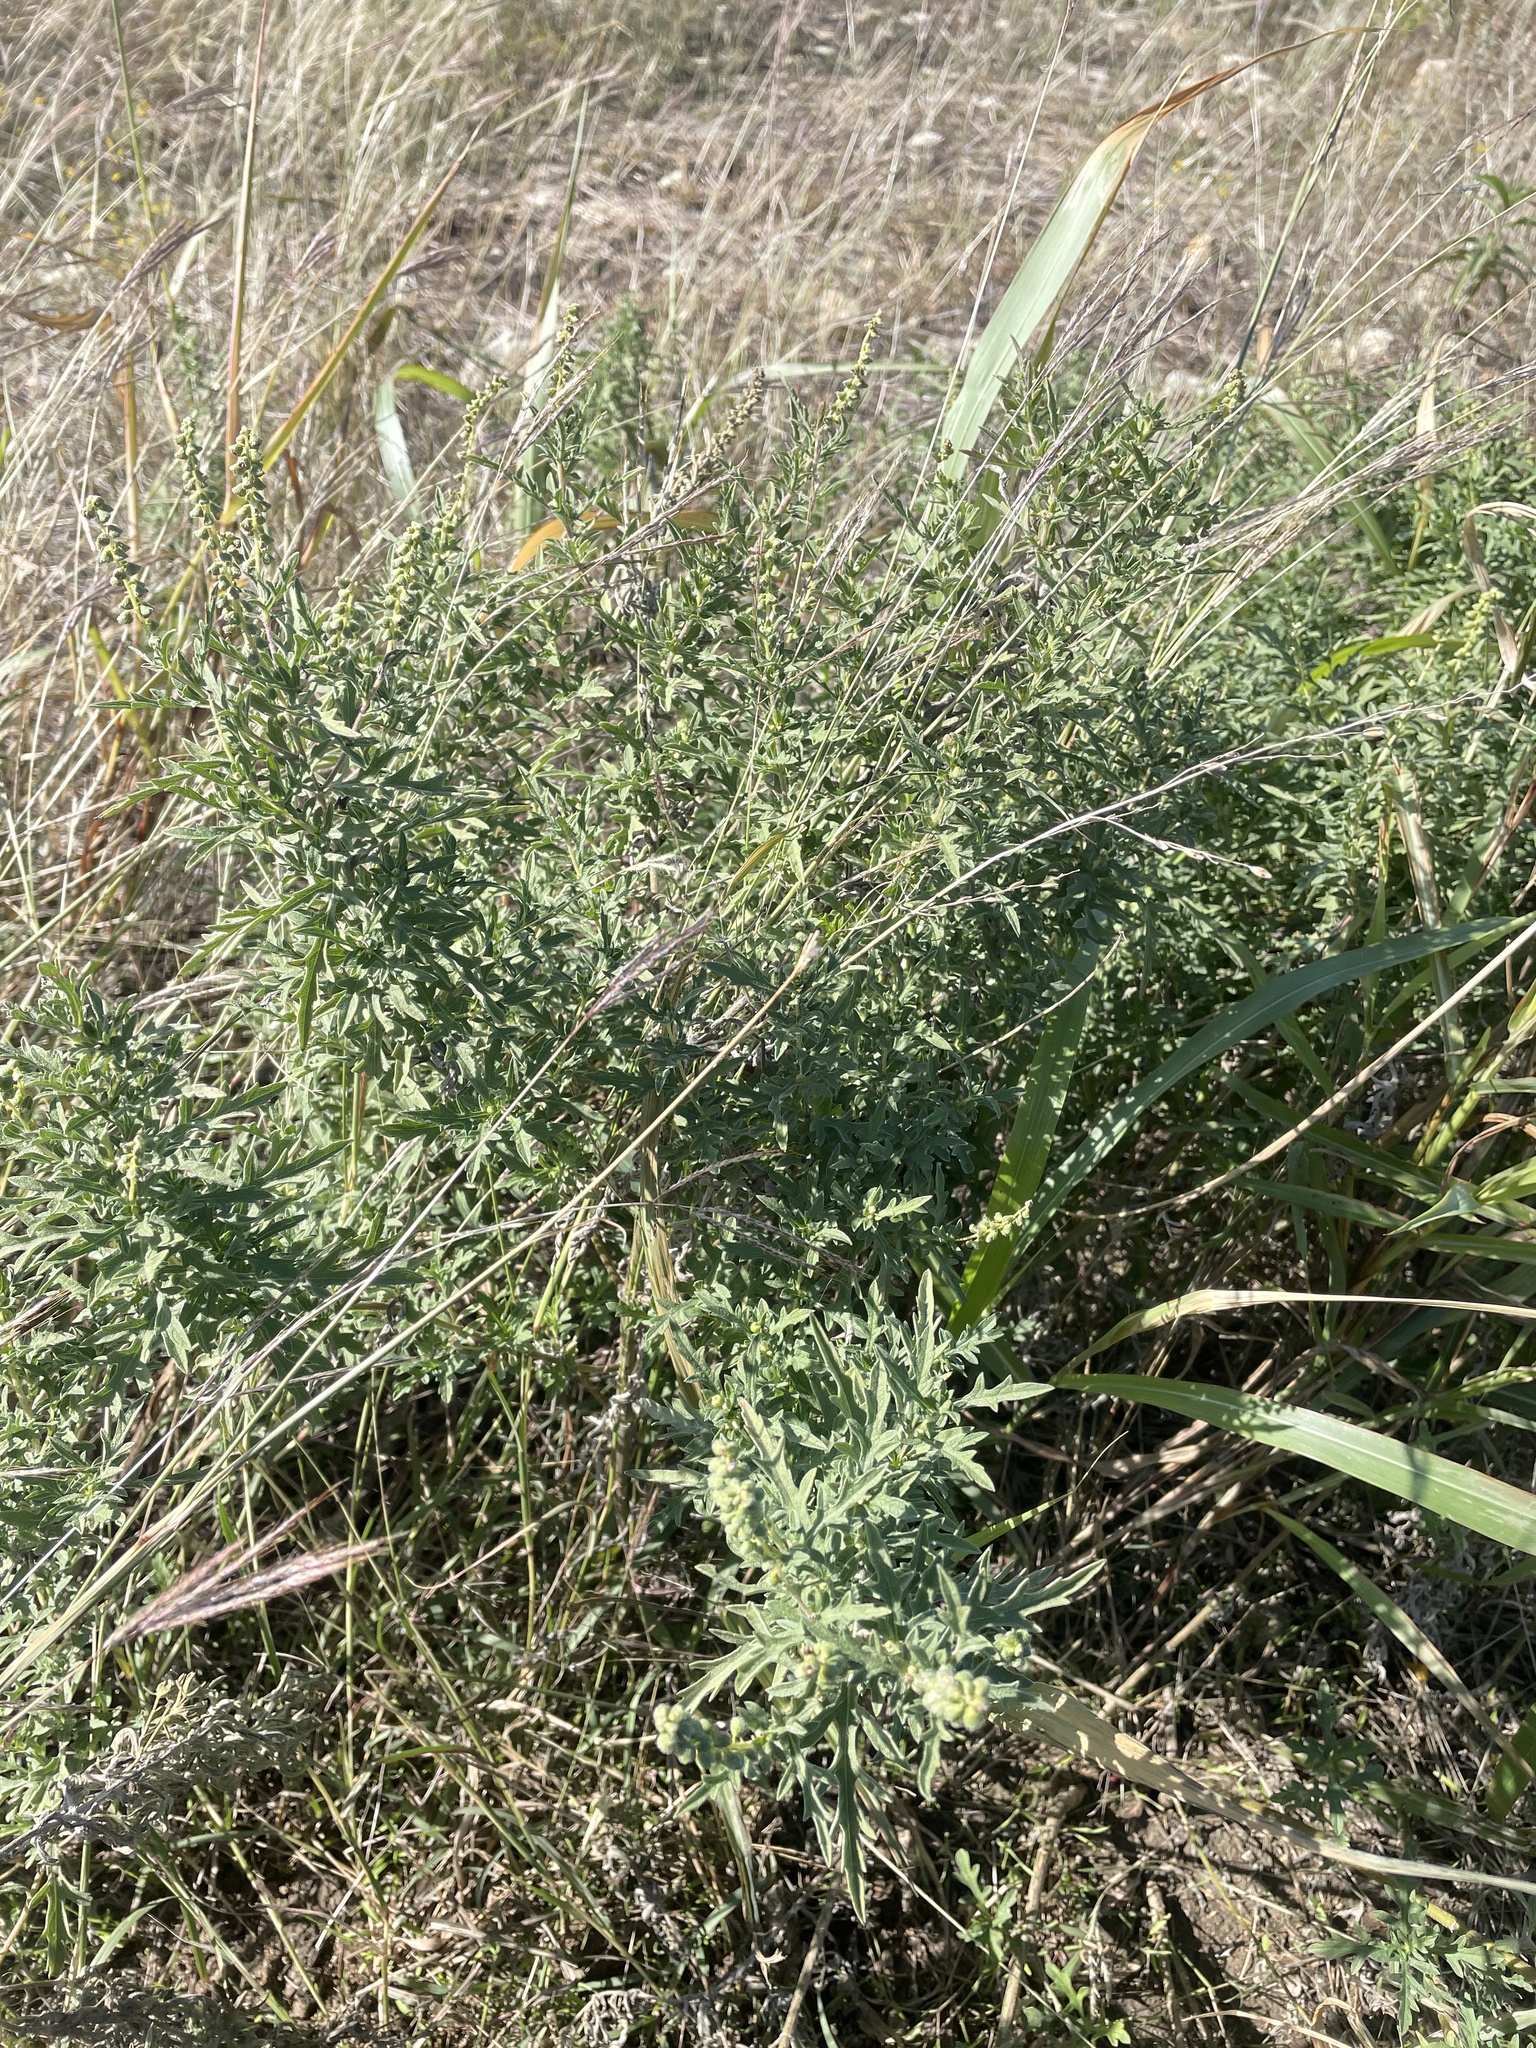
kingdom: Plantae
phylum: Tracheophyta
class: Magnoliopsida
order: Asterales
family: Asteraceae
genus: Ambrosia
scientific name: Ambrosia psilostachya
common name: Perennial ragweed
